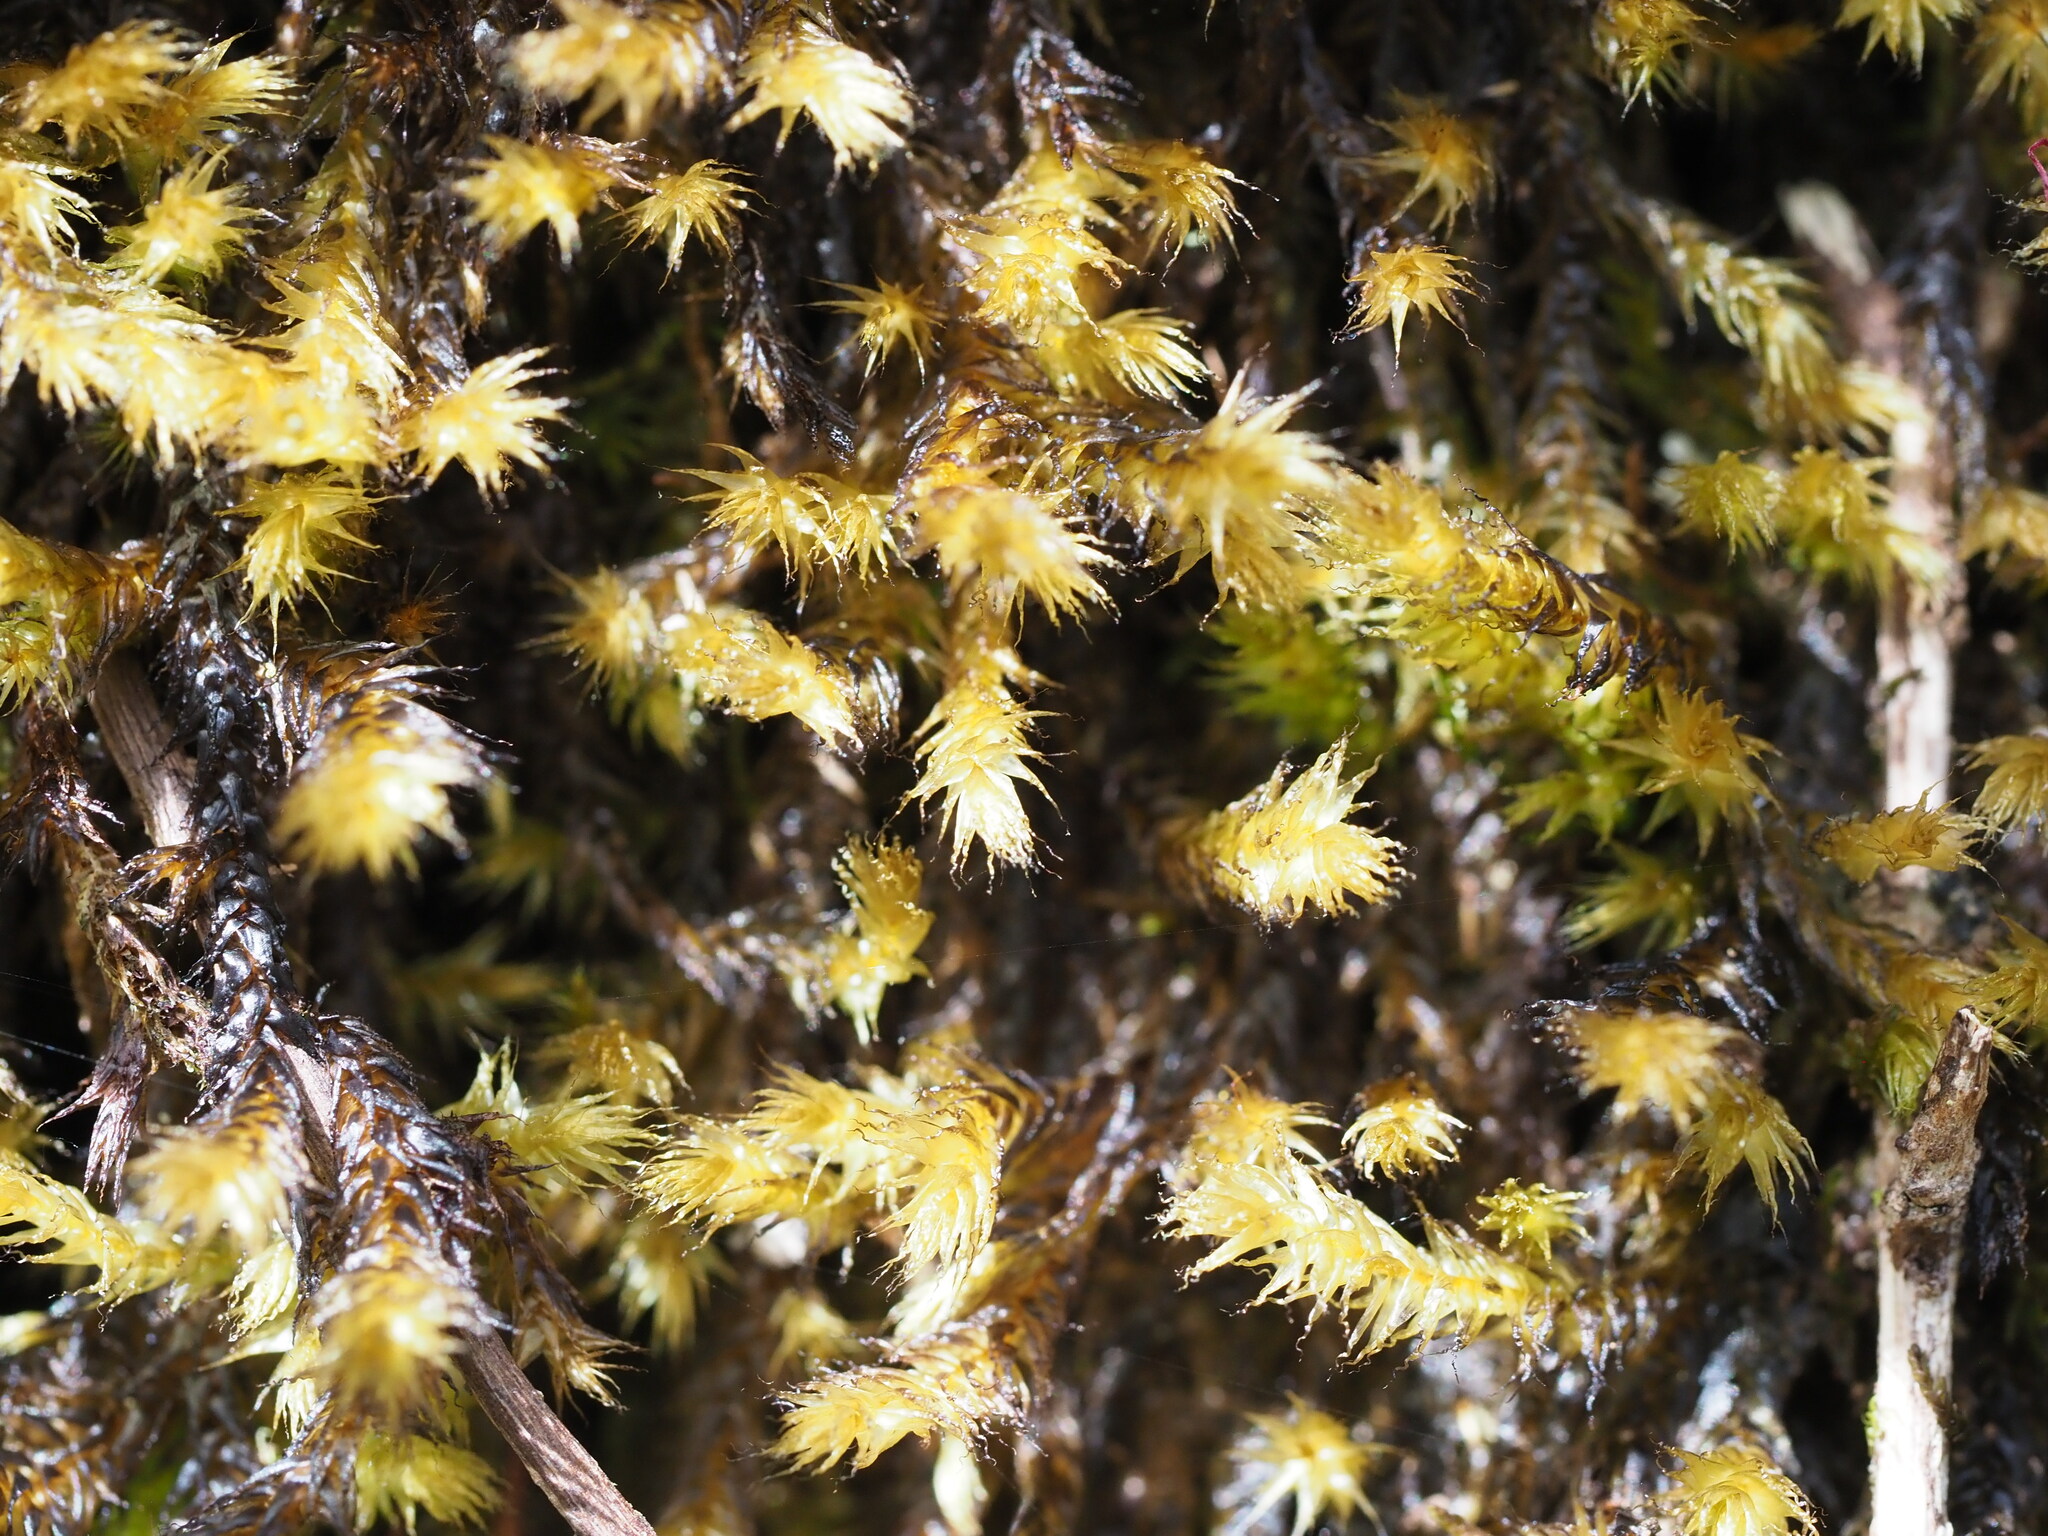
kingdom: Plantae
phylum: Bryophyta
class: Bryopsida
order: Hypnales
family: Meteoriaceae
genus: Aerobryopsis
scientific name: Aerobryopsis longissima
